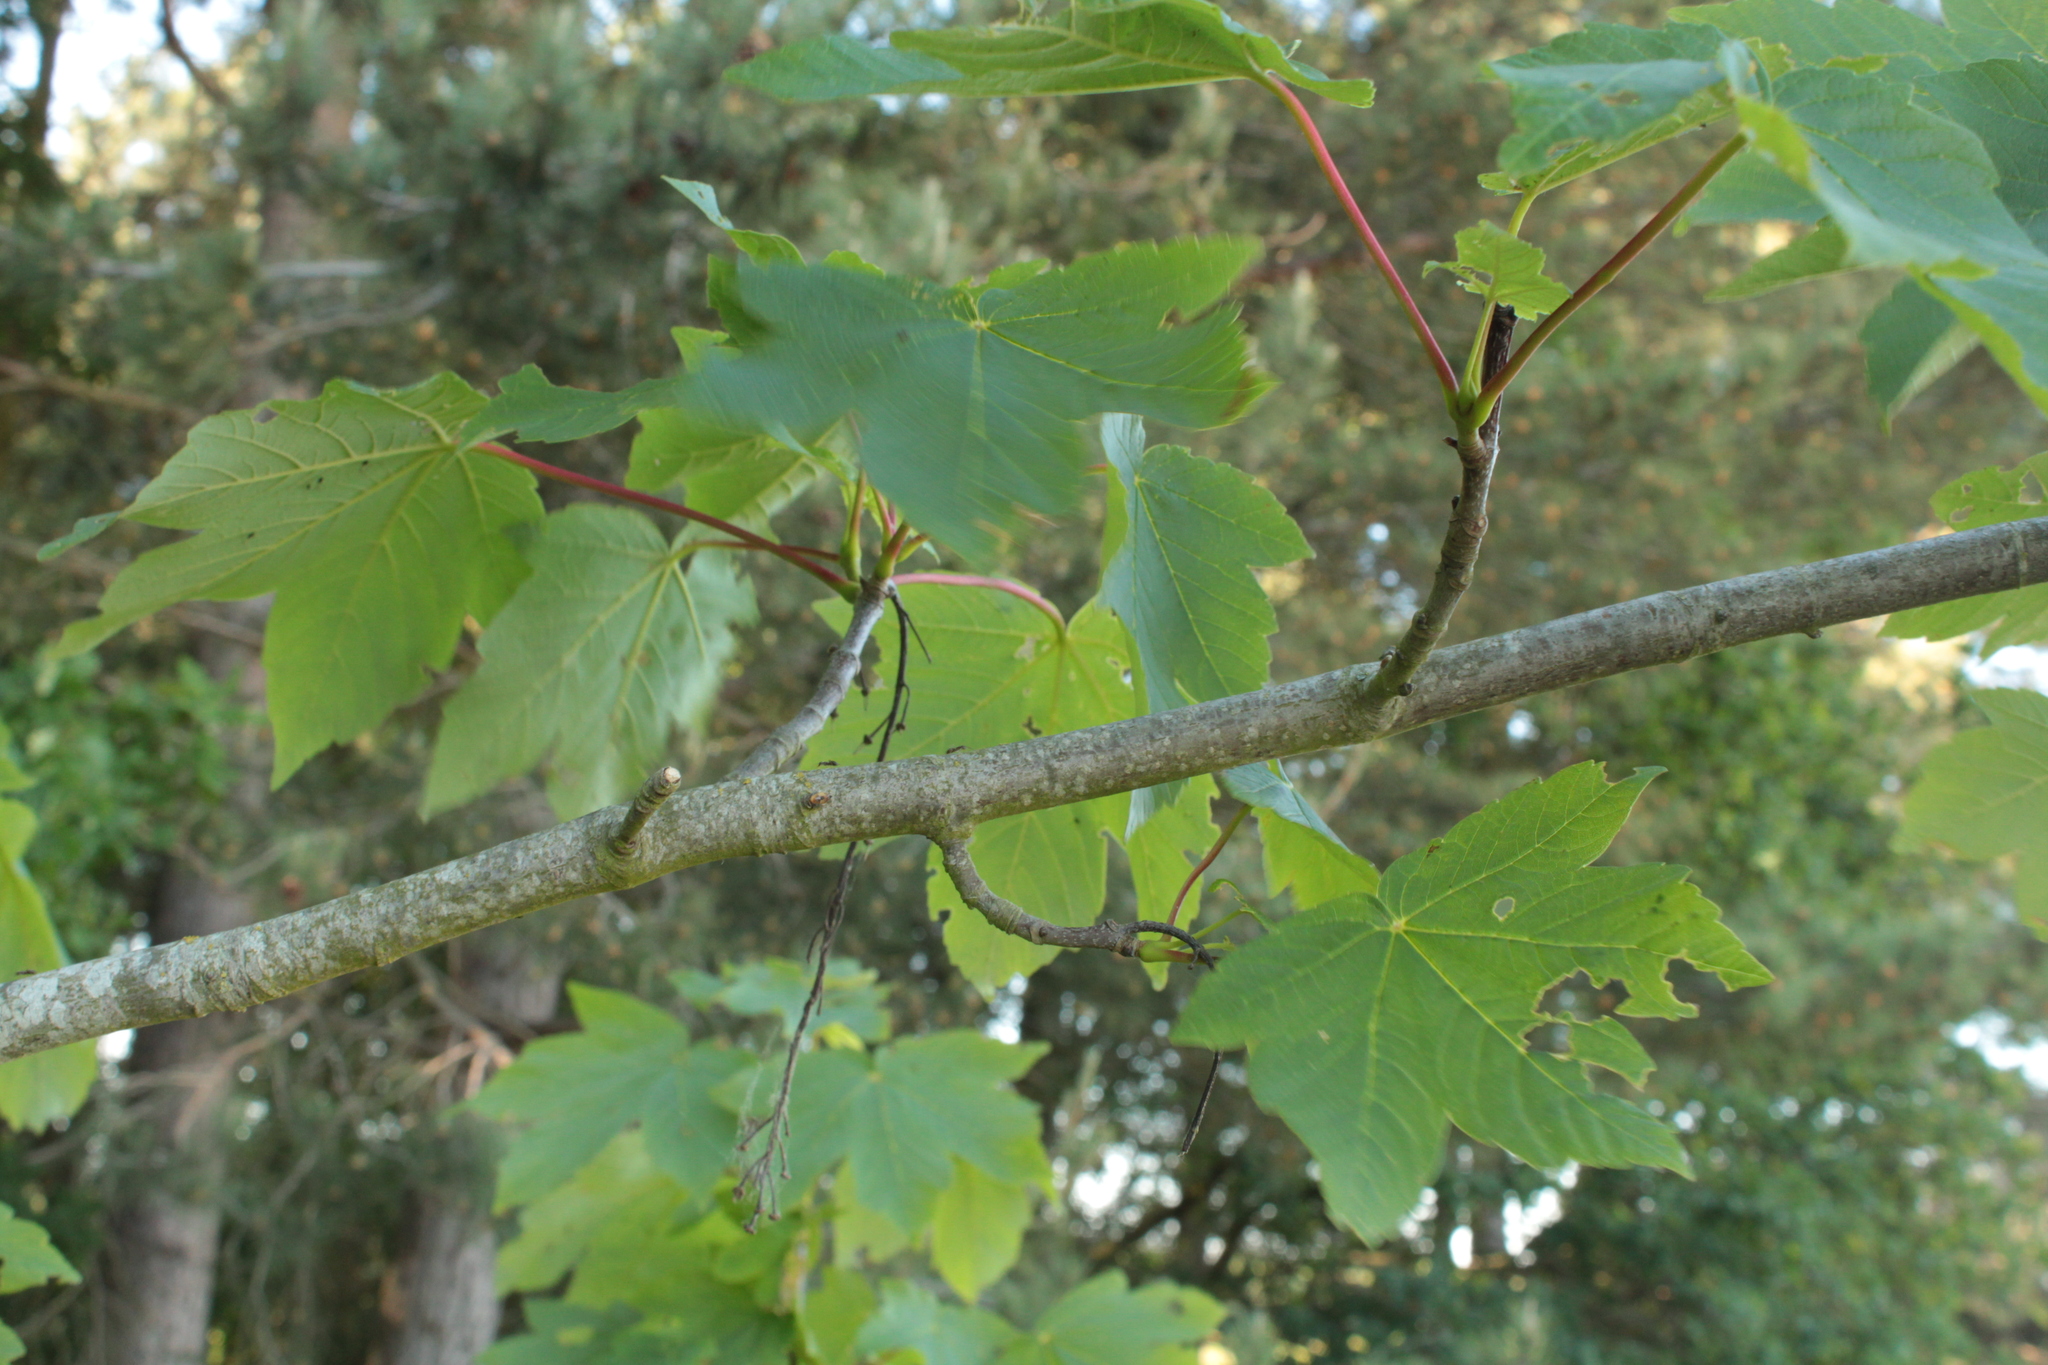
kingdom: Plantae
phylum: Tracheophyta
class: Magnoliopsida
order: Sapindales
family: Sapindaceae
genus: Acer
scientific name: Acer pseudoplatanus
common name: Sycamore
